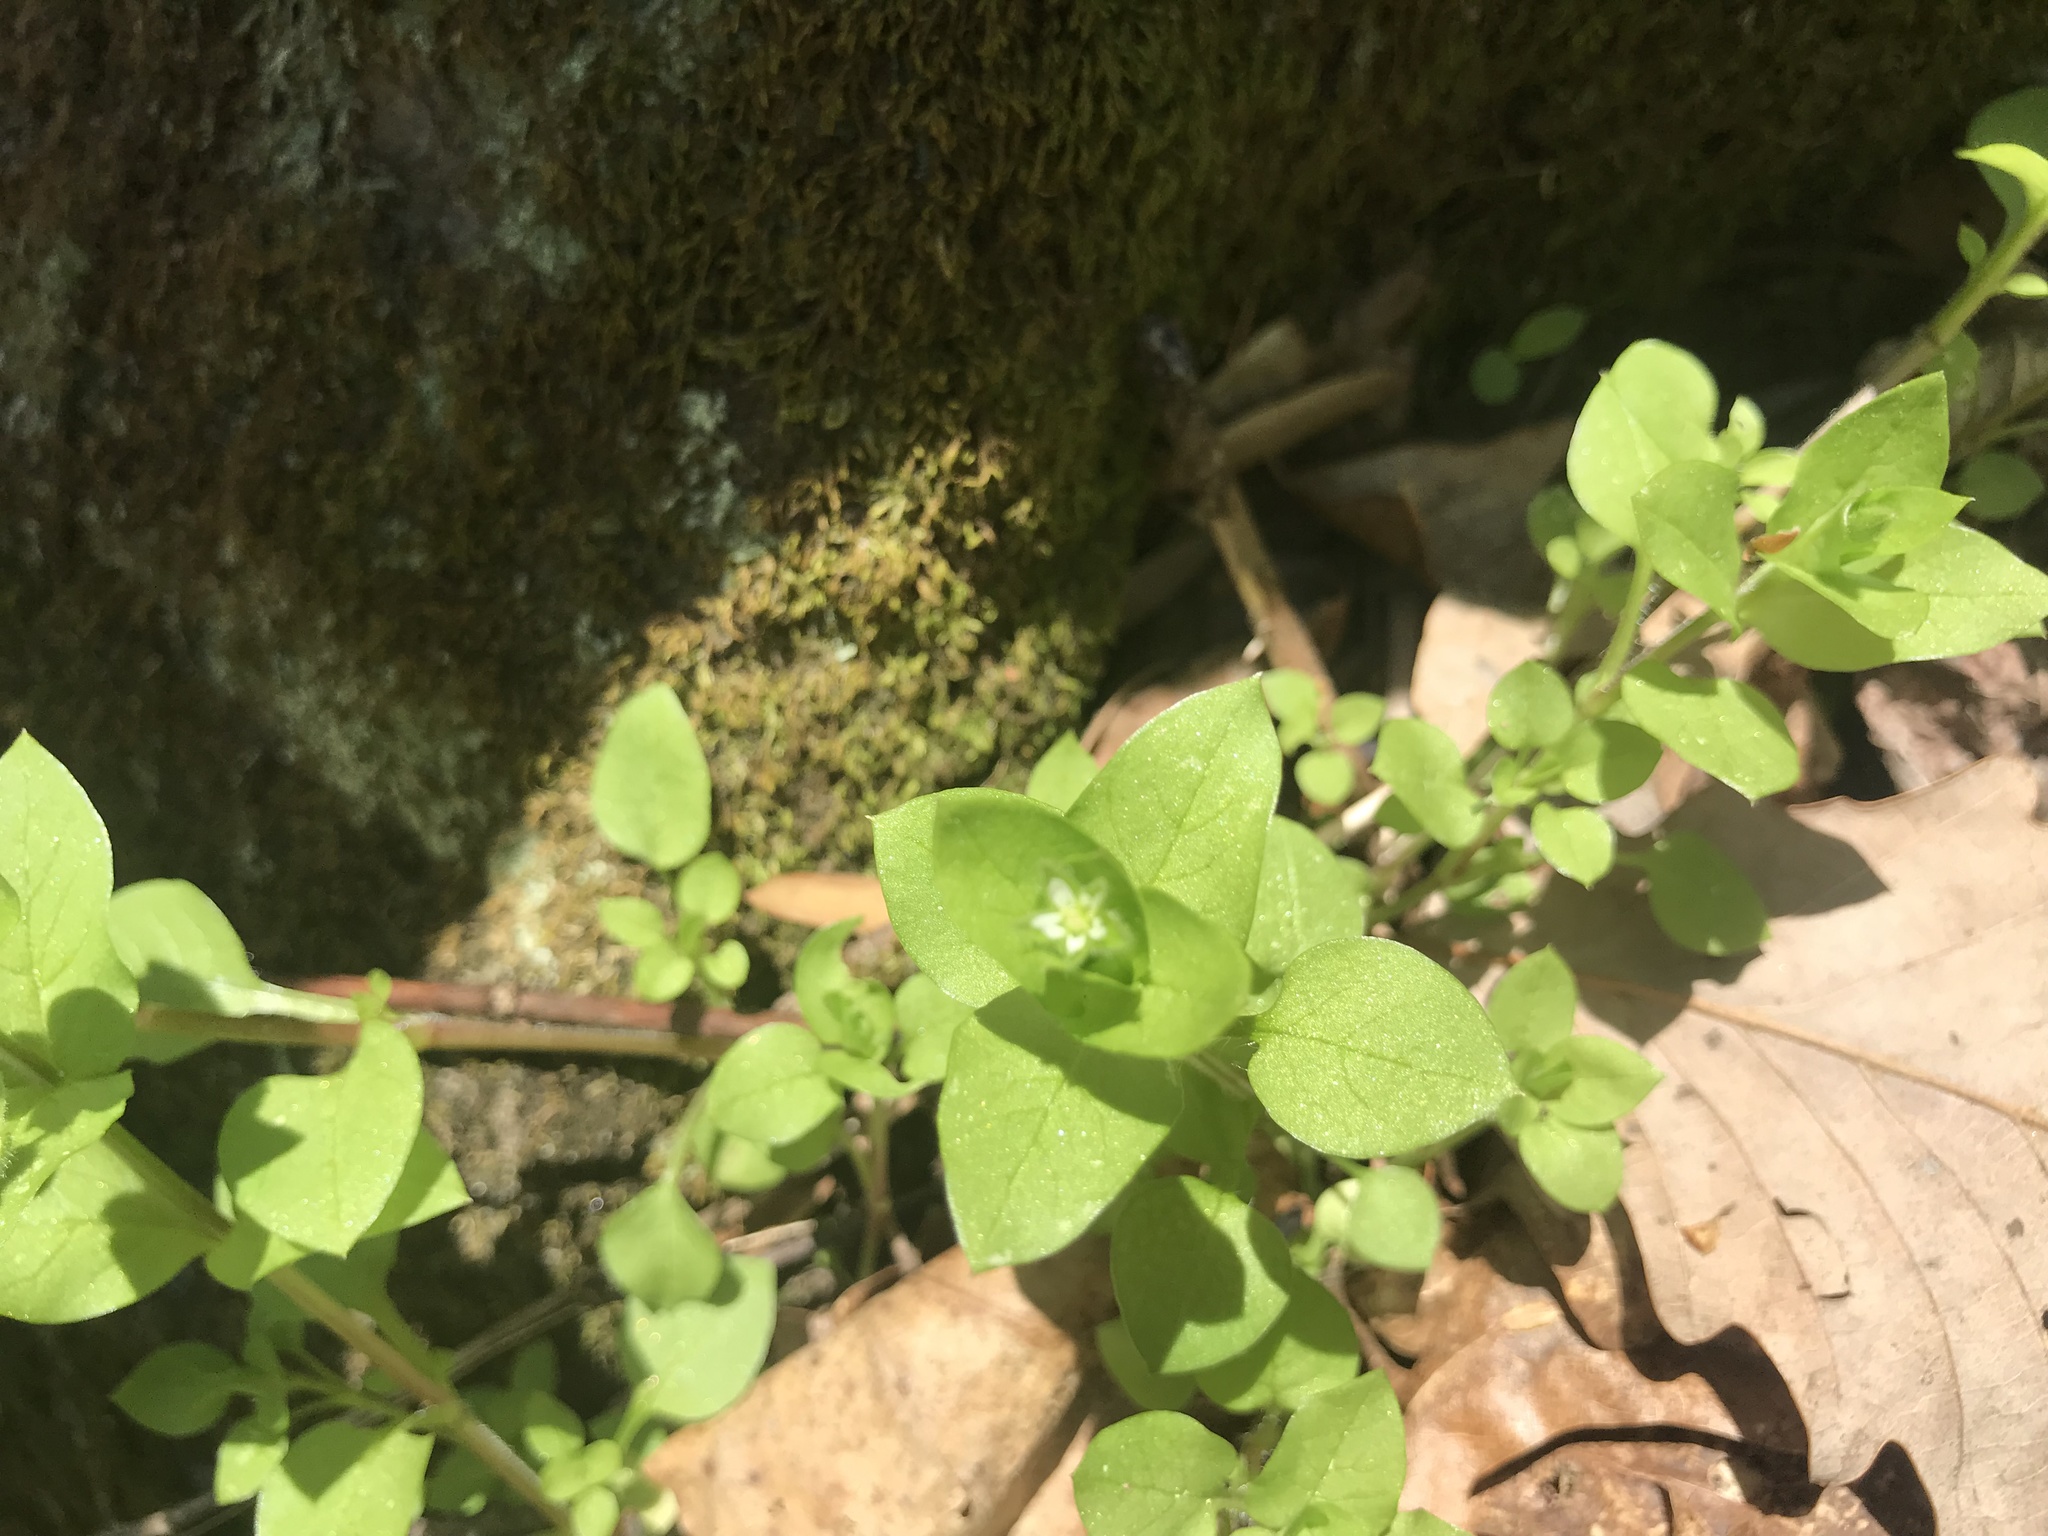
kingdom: Plantae
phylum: Tracheophyta
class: Magnoliopsida
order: Caryophyllales
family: Caryophyllaceae
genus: Stellaria
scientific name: Stellaria media
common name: Common chickweed
